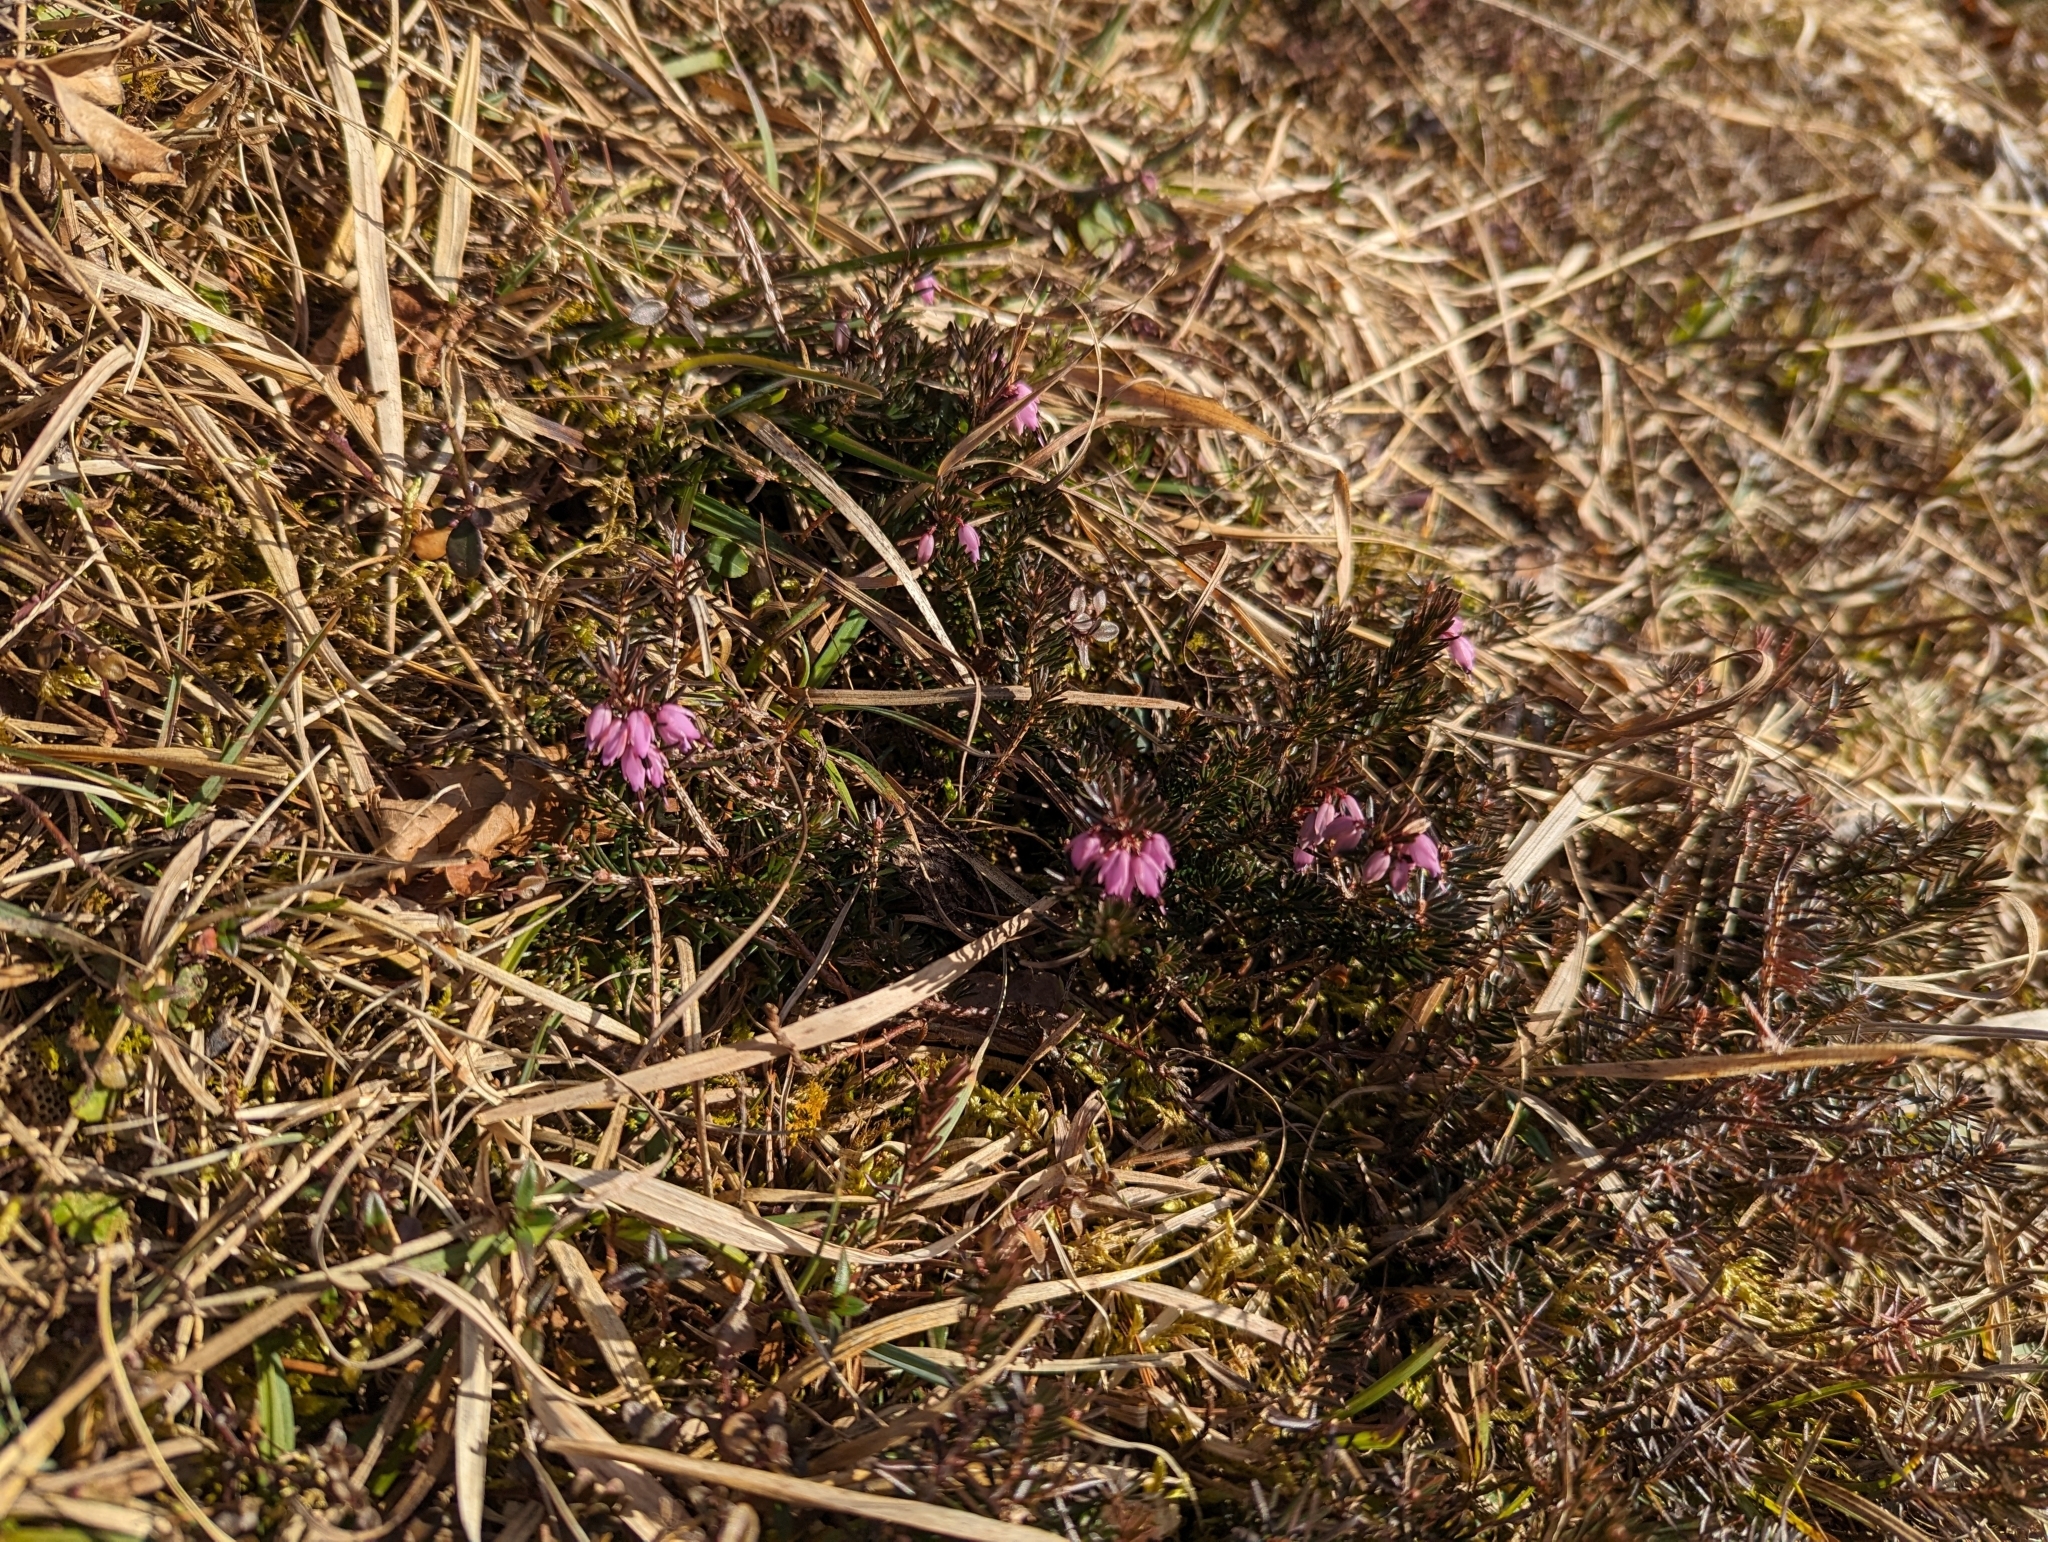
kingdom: Plantae
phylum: Tracheophyta
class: Magnoliopsida
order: Ericales
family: Ericaceae
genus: Erica
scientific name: Erica carnea
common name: Winter heath
